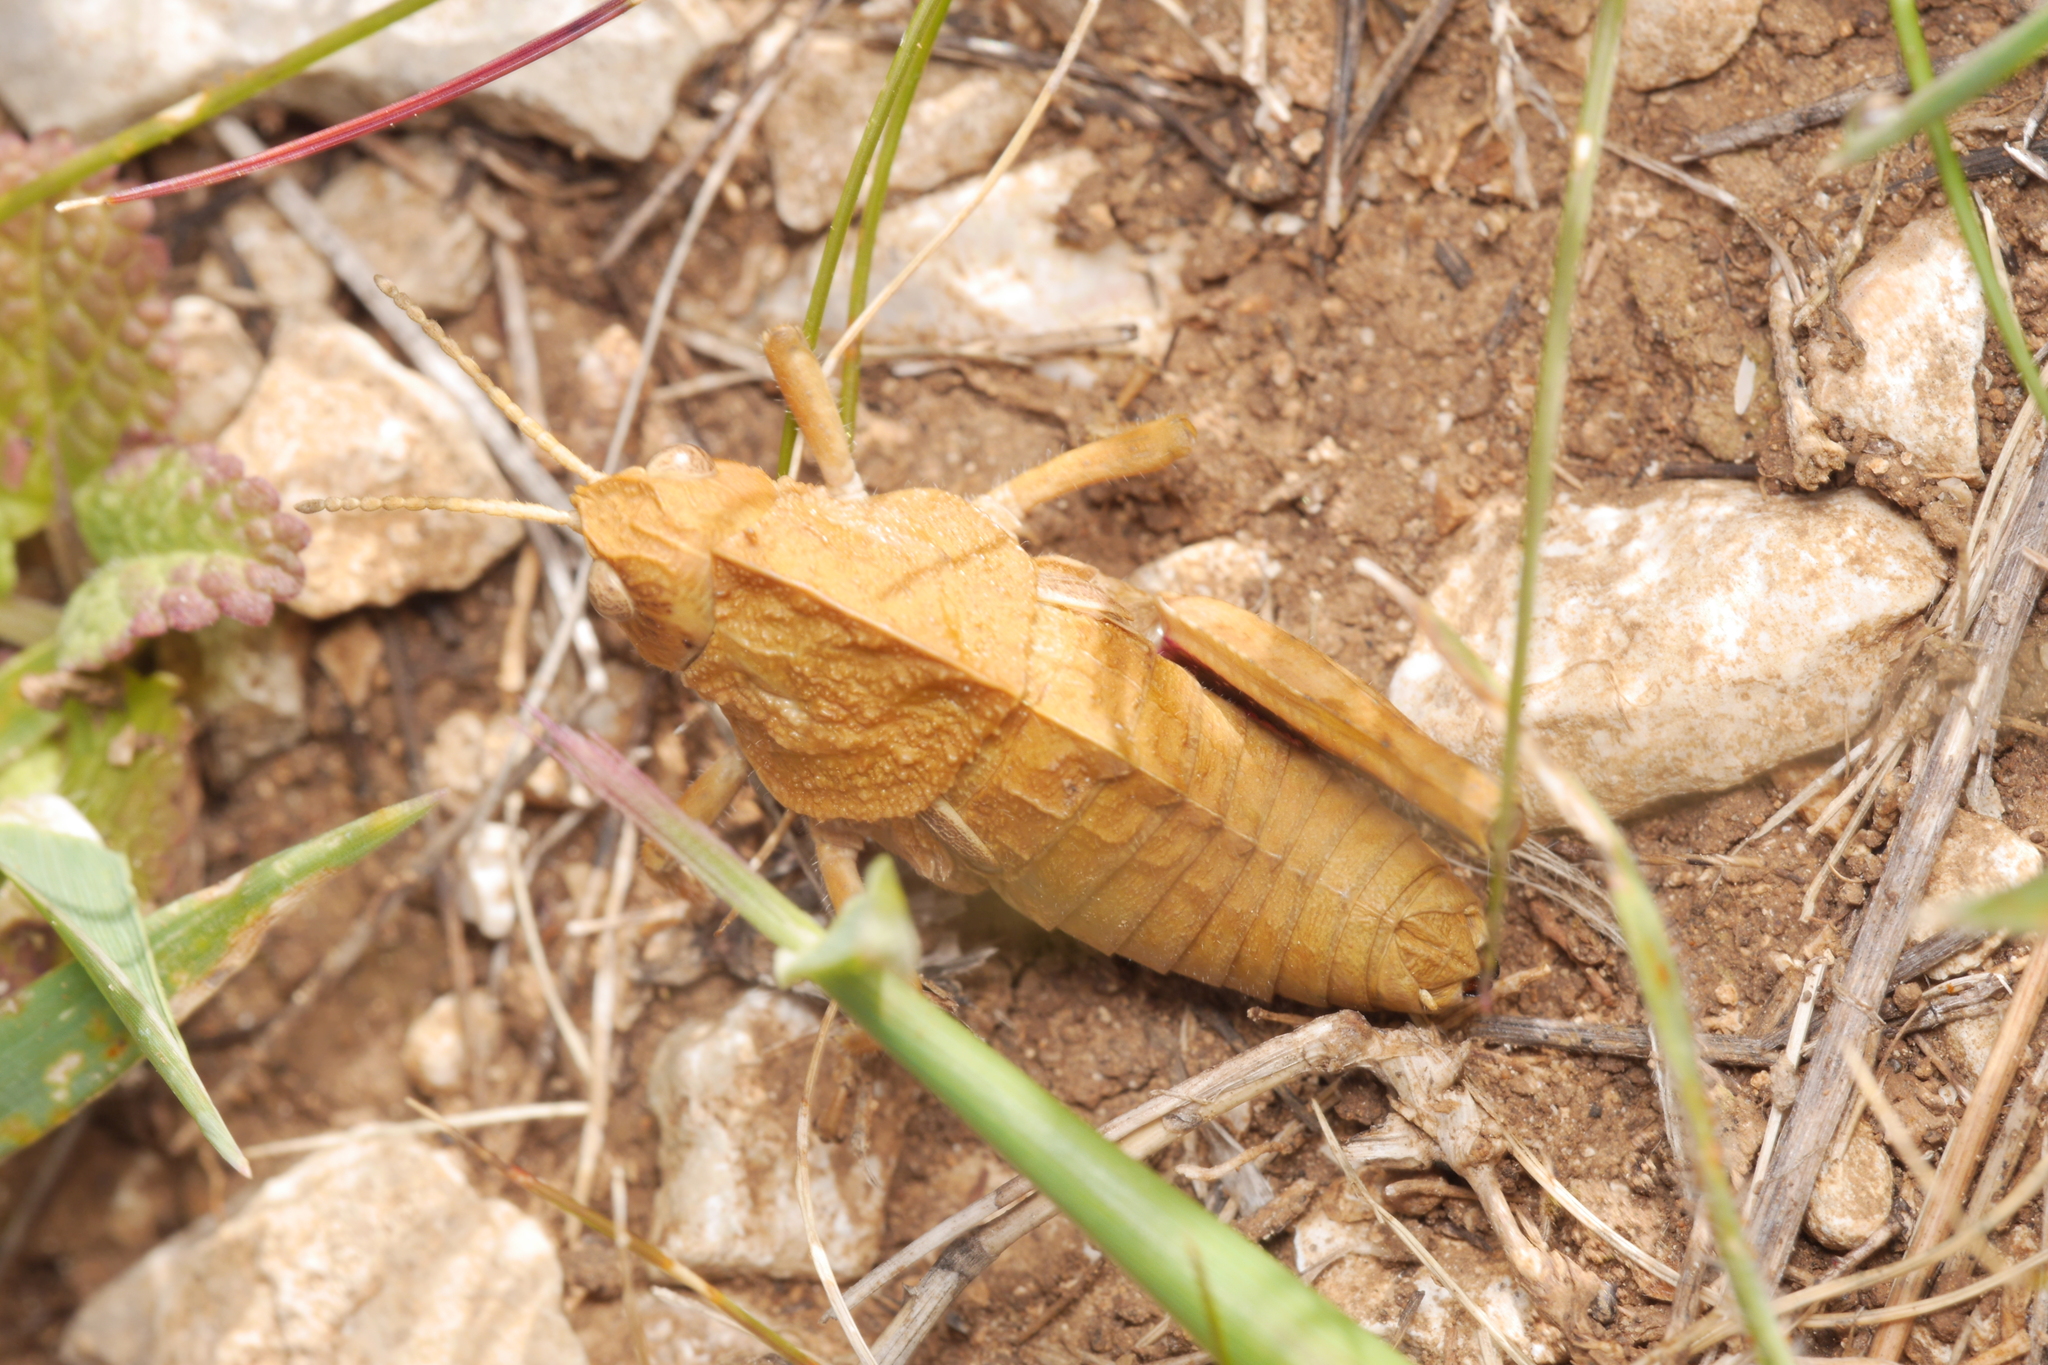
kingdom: Animalia
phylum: Arthropoda
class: Insecta
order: Orthoptera
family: Pamphagidae
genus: Ocneridia
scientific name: Ocneridia nigropunctata
